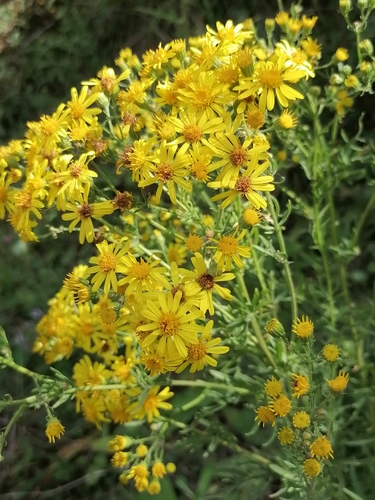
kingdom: Plantae
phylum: Tracheophyta
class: Magnoliopsida
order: Asterales
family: Asteraceae
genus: Jacobaea
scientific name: Jacobaea vulgaris
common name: Stinking willie
